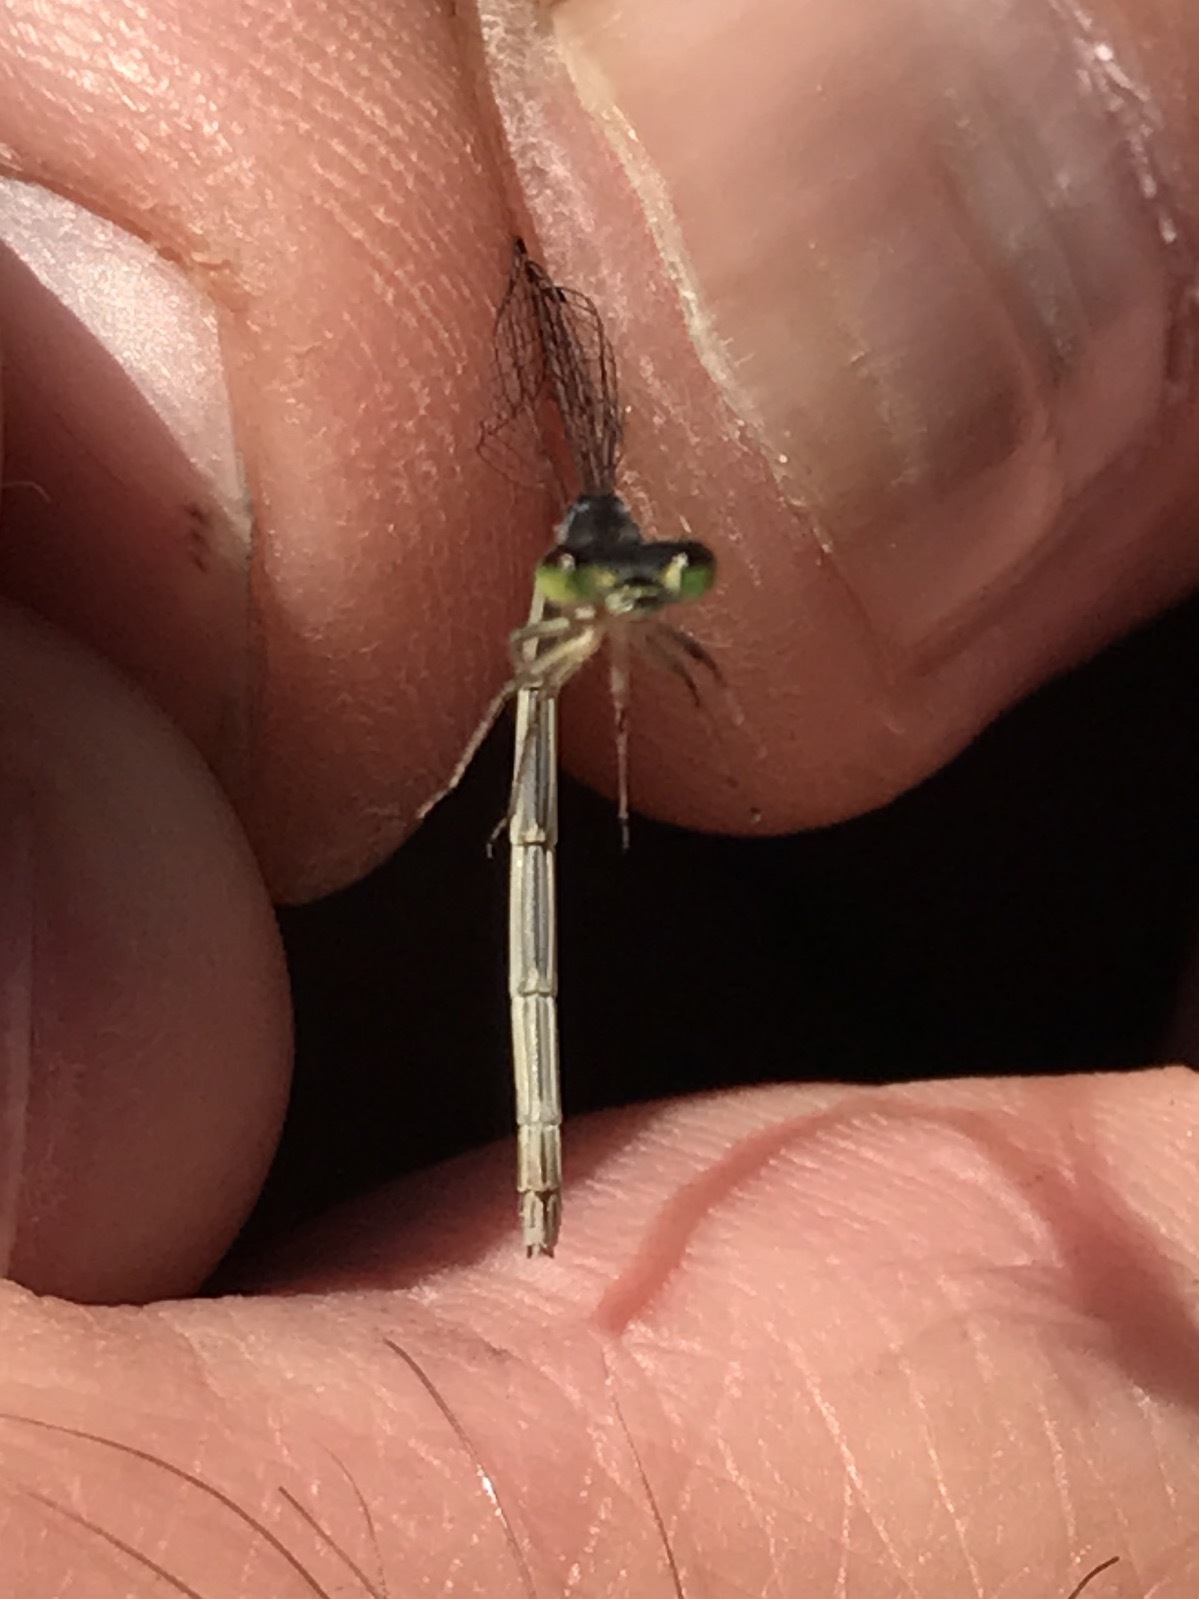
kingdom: Animalia
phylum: Arthropoda
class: Insecta
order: Odonata
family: Coenagrionidae
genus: Ischnura
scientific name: Ischnura posita
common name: Fragile forktail
